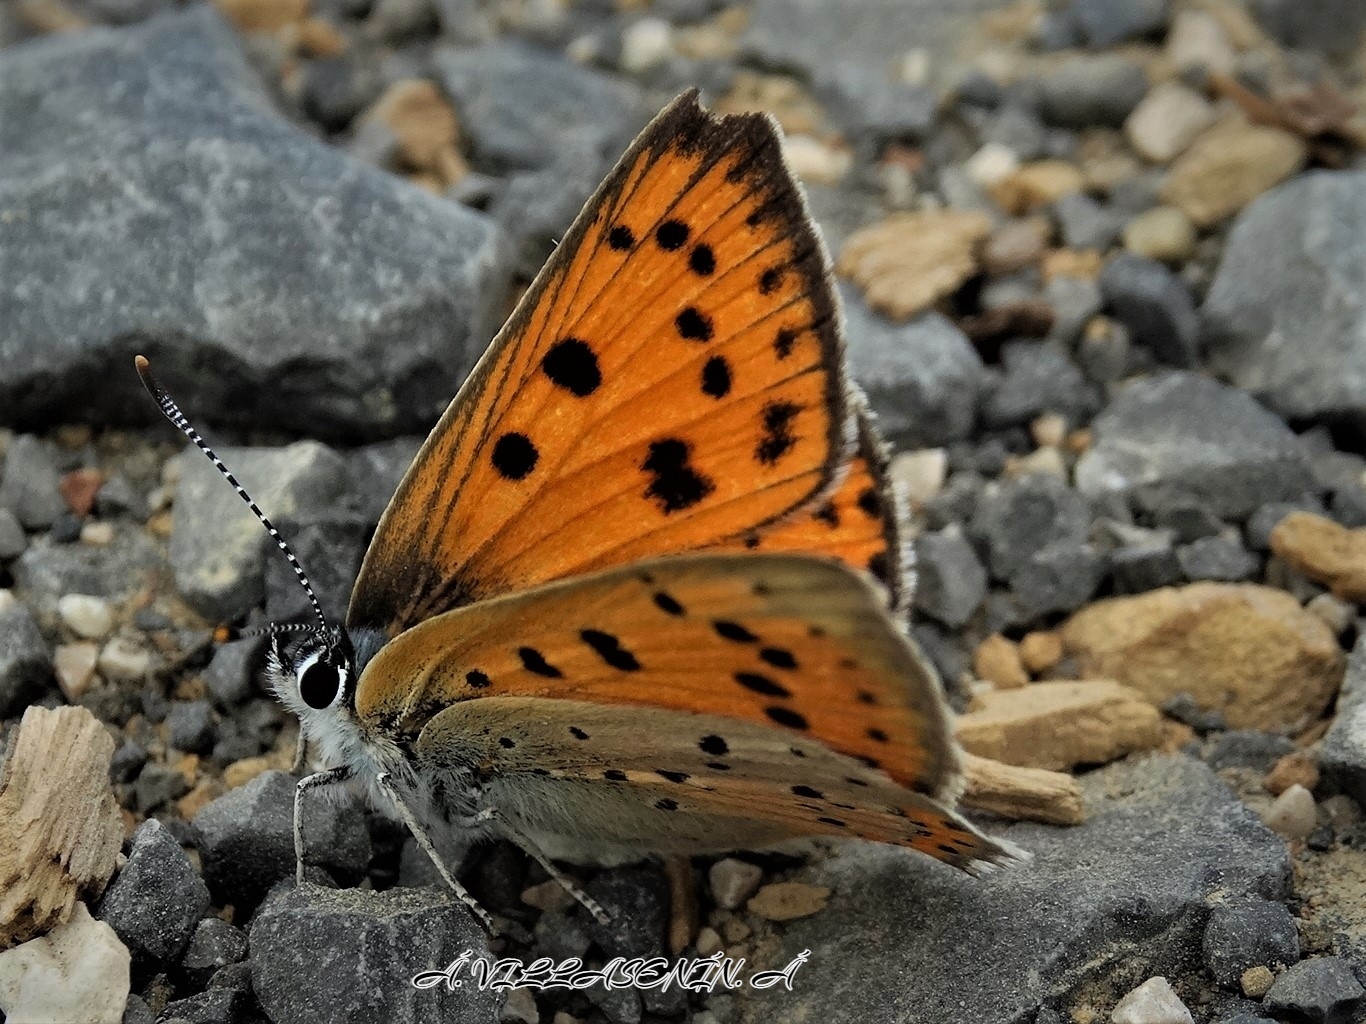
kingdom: Animalia
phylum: Arthropoda
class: Insecta
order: Lepidoptera
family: Lycaenidae
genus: Lycaena
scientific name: Lycaena alciphron
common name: Purple-shot copper
